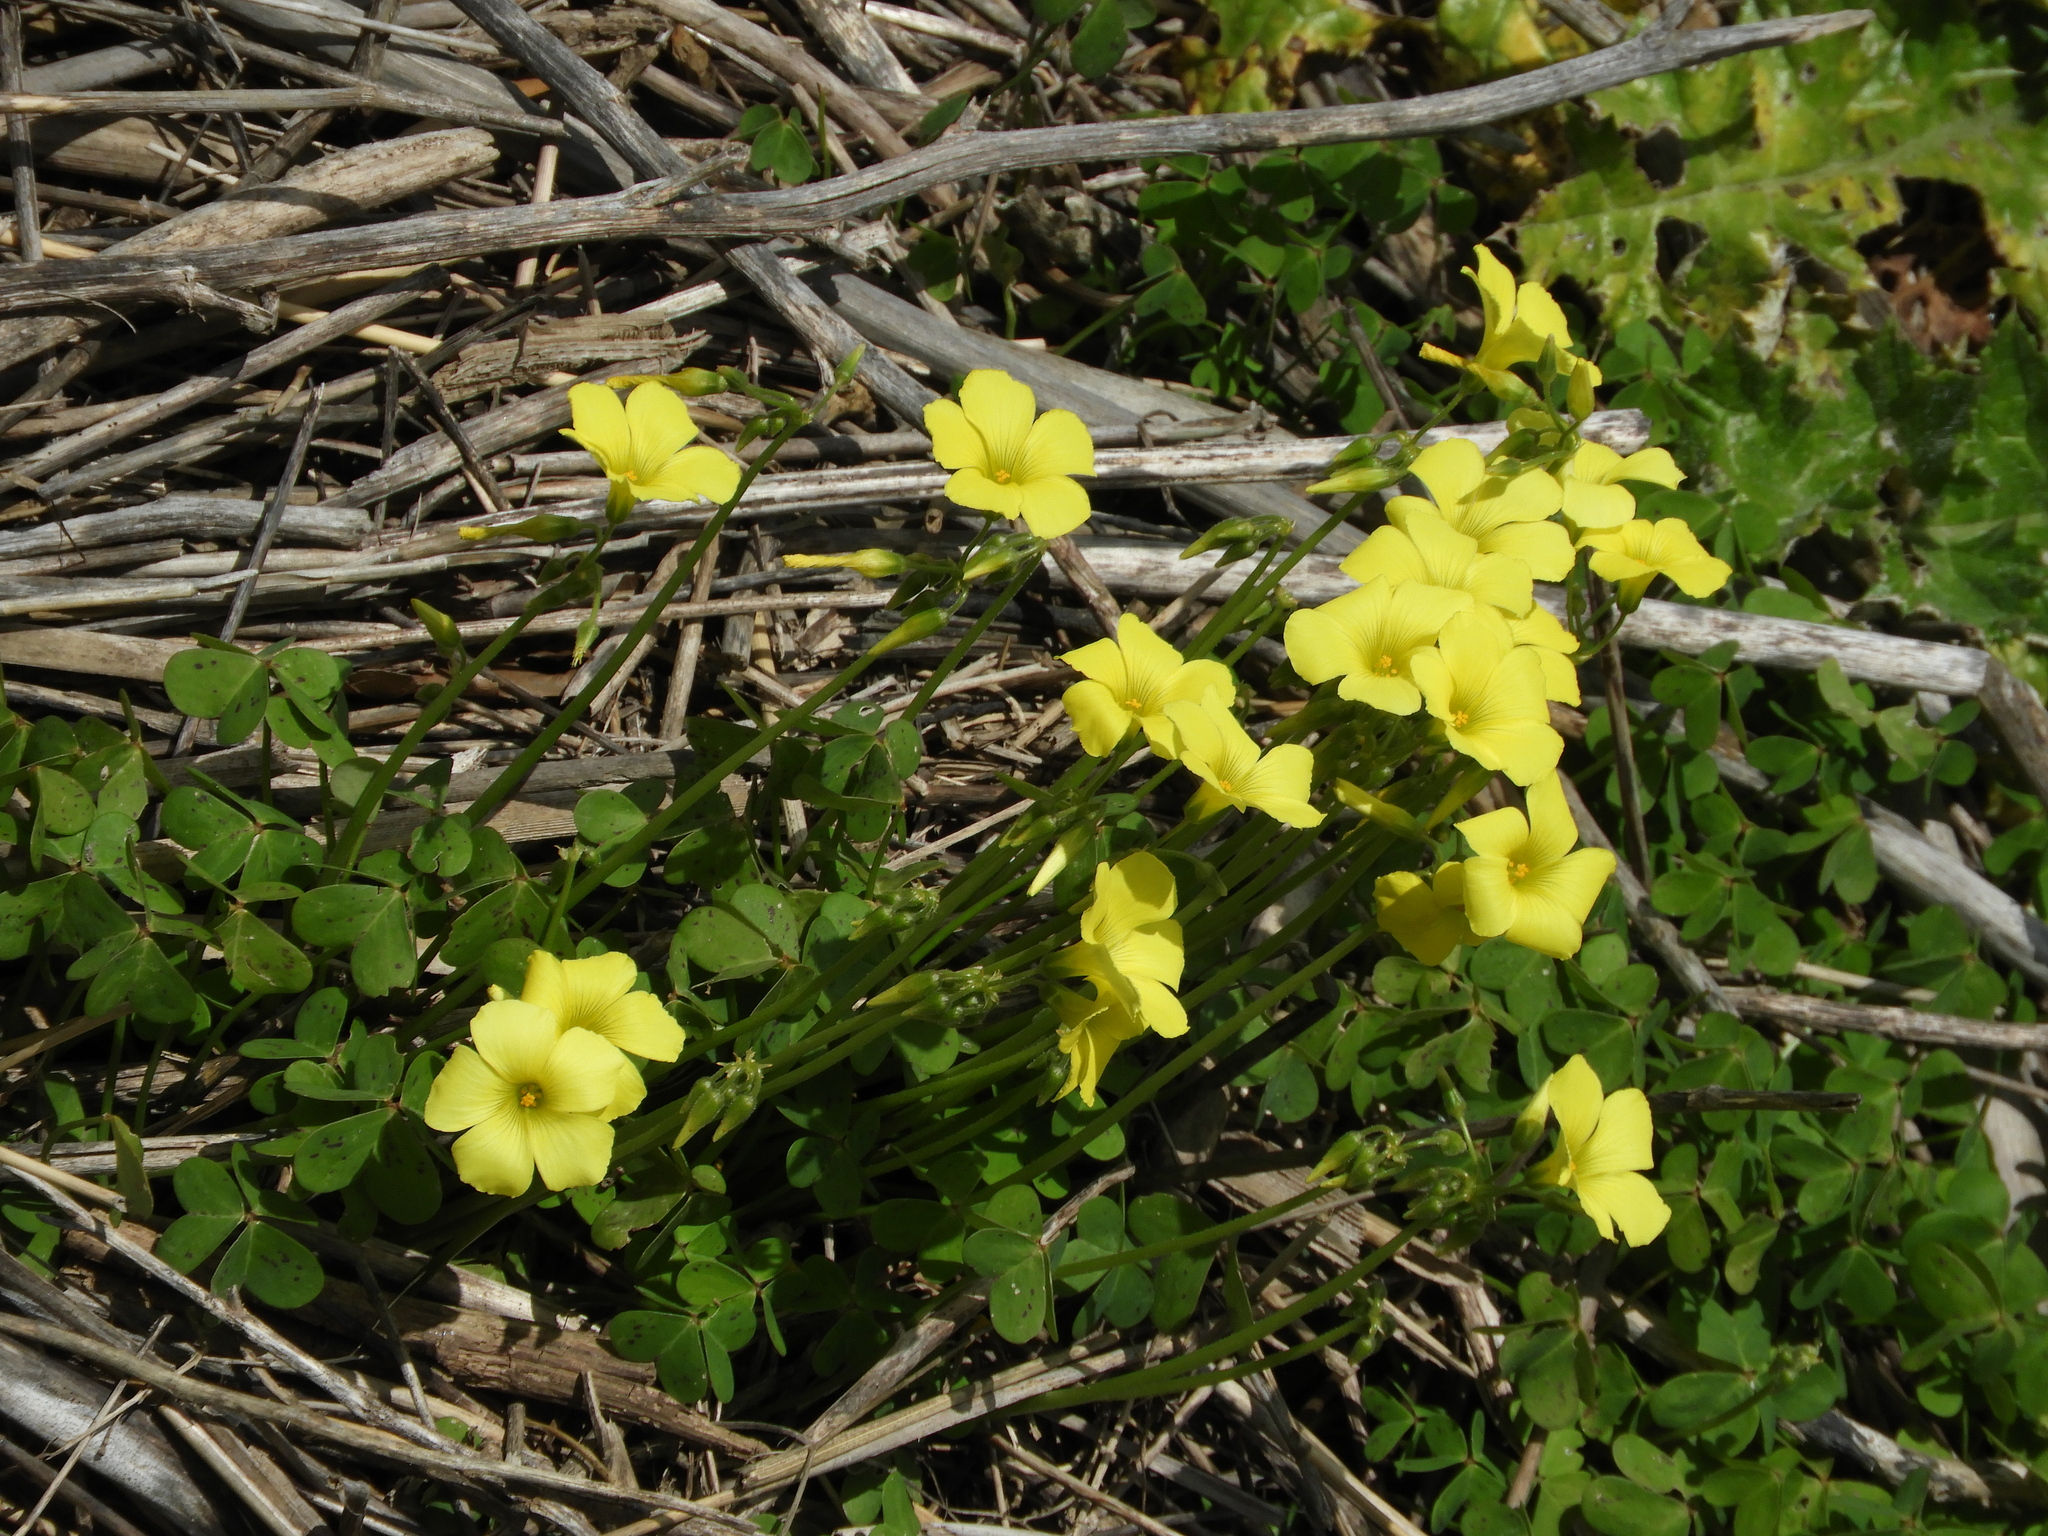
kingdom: Plantae
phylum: Tracheophyta
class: Magnoliopsida
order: Oxalidales
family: Oxalidaceae
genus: Oxalis
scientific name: Oxalis pes-caprae
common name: Bermuda-buttercup
